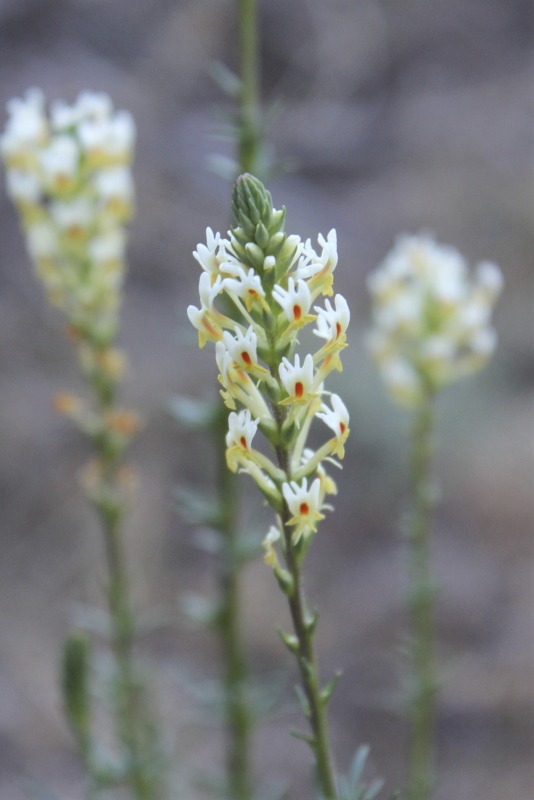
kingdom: Plantae
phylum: Tracheophyta
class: Magnoliopsida
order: Lamiales
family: Scrophulariaceae
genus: Hebenstretia
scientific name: Hebenstretia integrifolia
